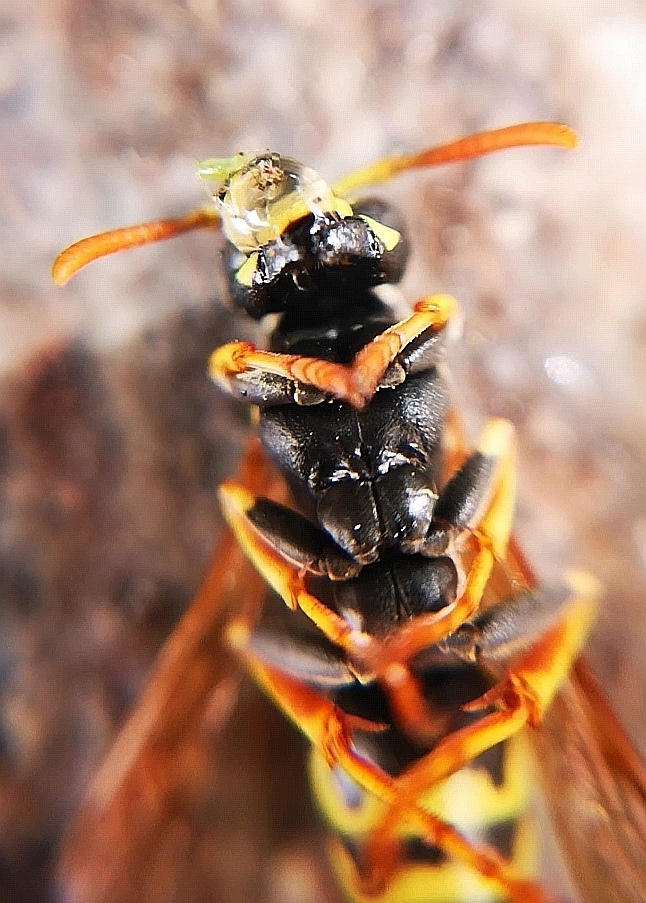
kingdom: Animalia
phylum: Arthropoda
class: Insecta
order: Hymenoptera
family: Eumenidae
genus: Polistes
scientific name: Polistes dominula
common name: Paper wasp
